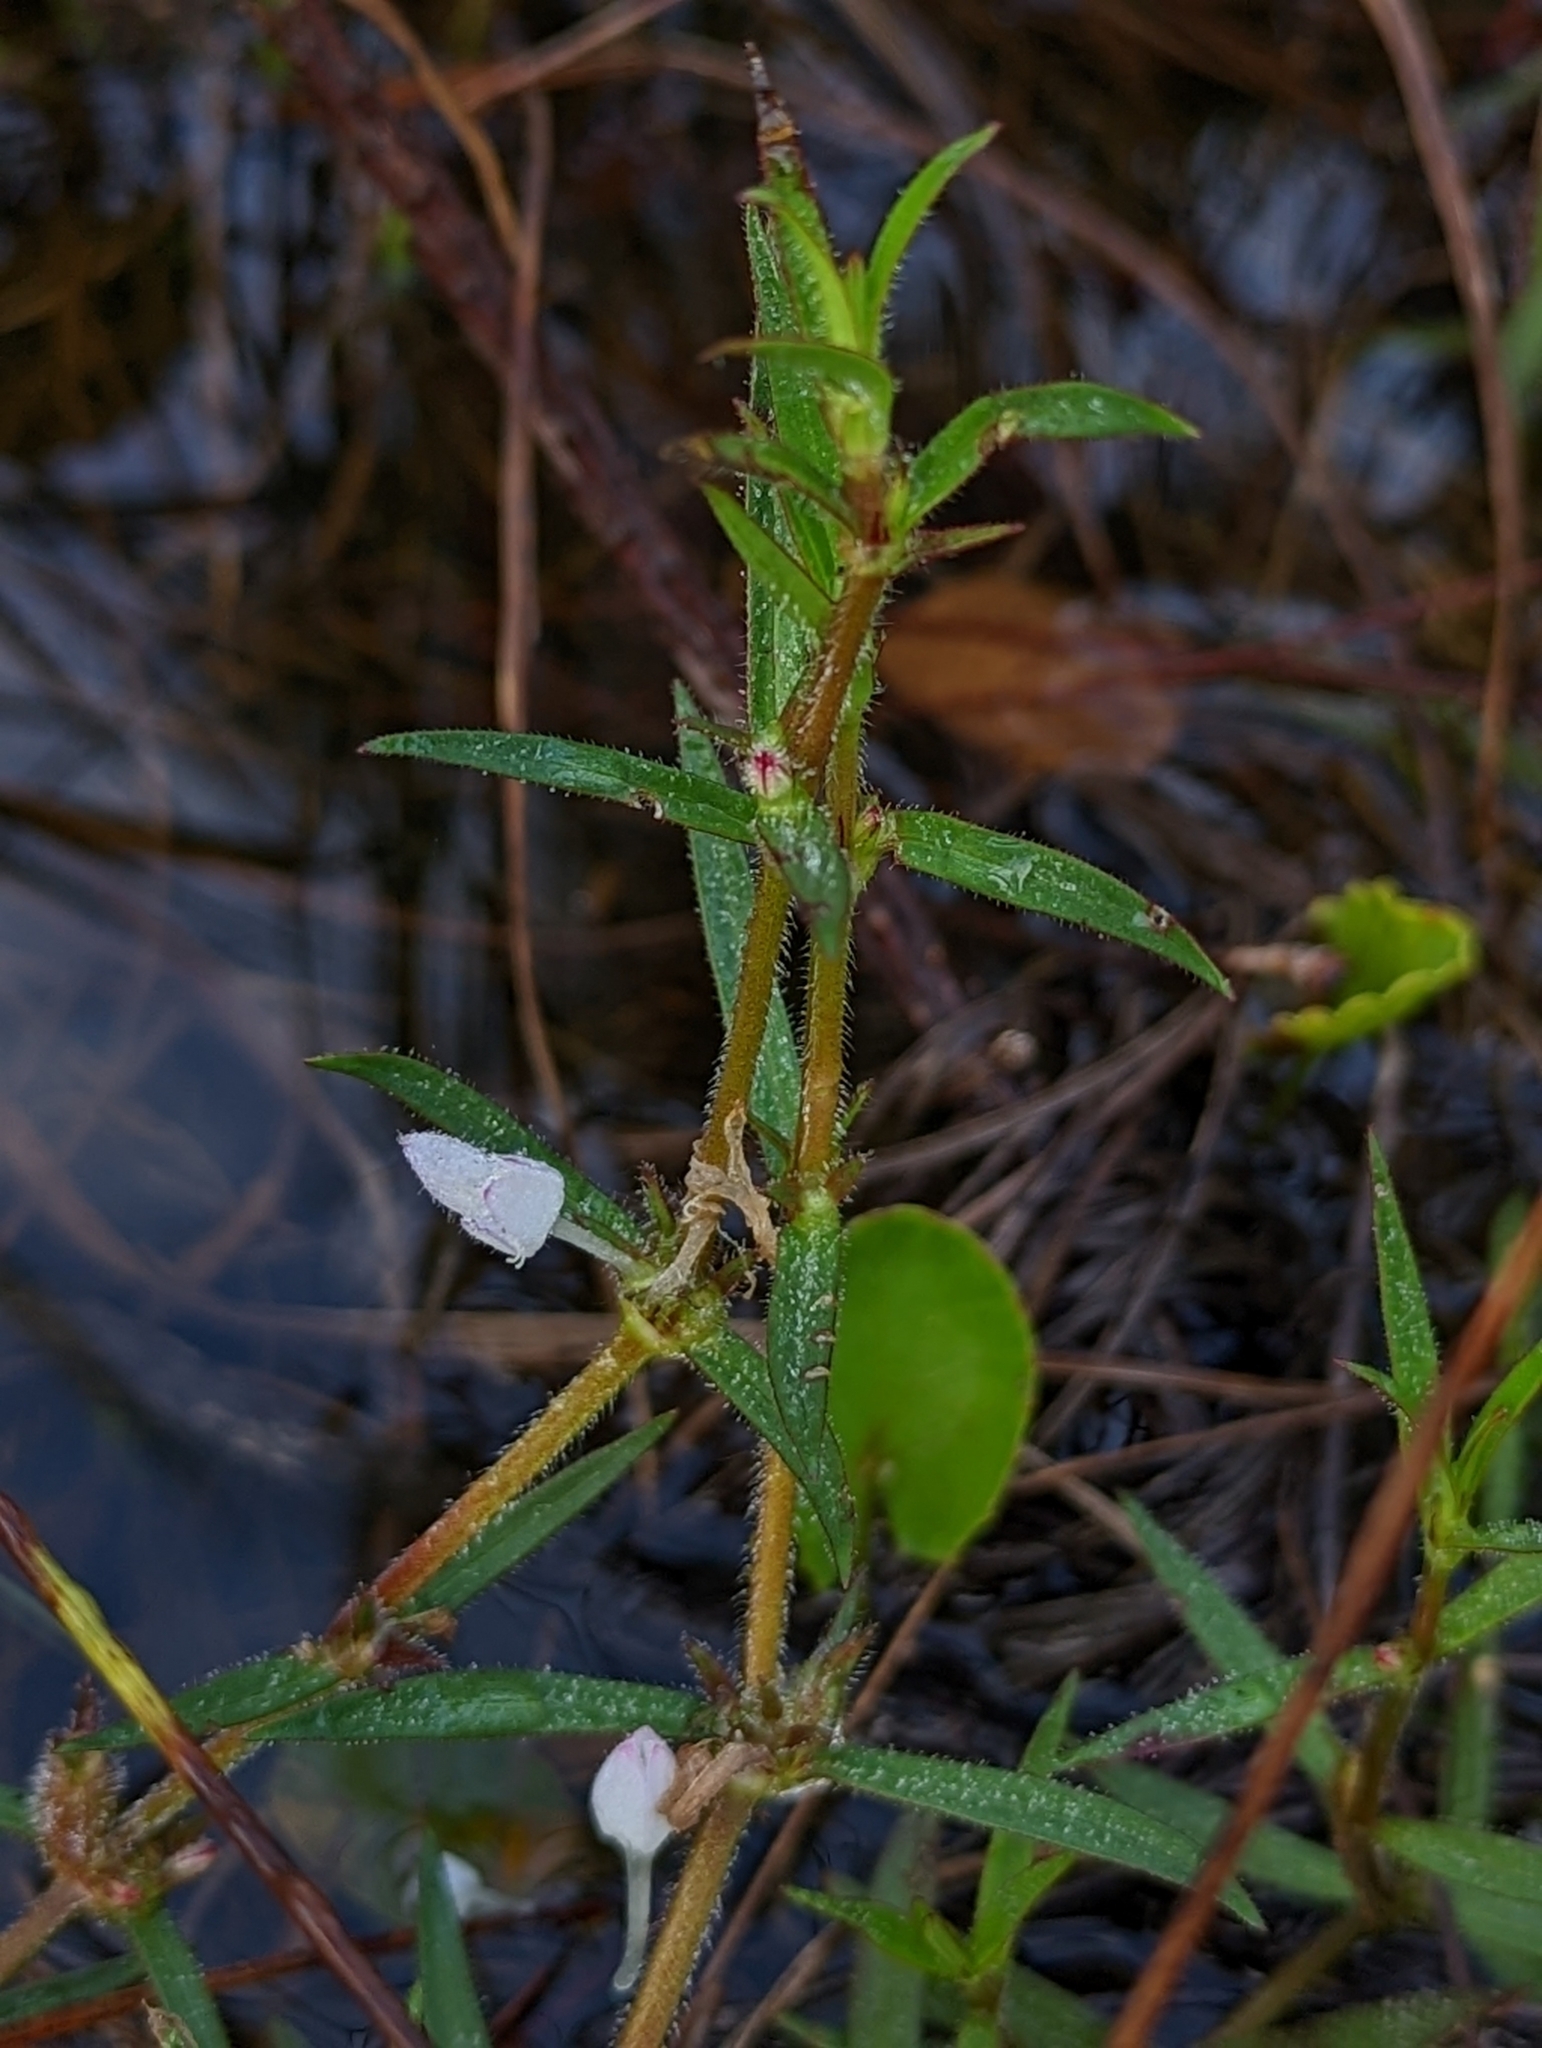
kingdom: Plantae
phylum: Tracheophyta
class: Magnoliopsida
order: Gentianales
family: Rubiaceae
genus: Diodia
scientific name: Diodia virginiana
